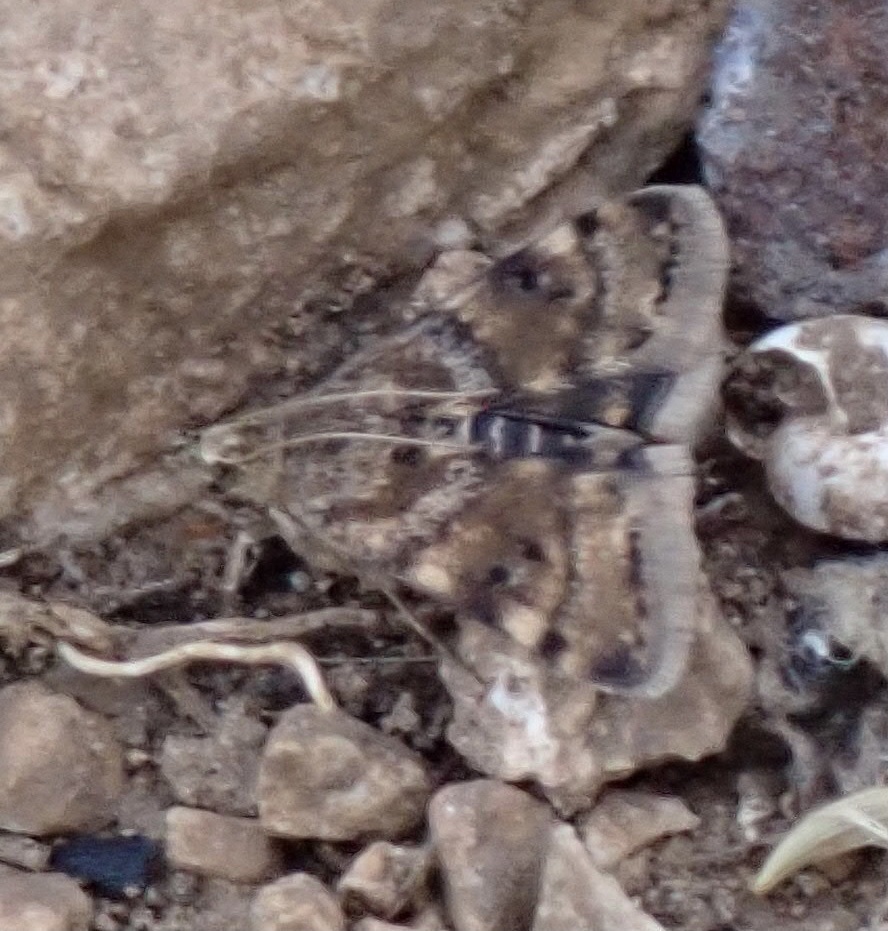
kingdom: Animalia
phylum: Arthropoda
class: Insecta
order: Lepidoptera
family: Crambidae
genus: Noctuelia
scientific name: Noctuelia Aporodes floralis
